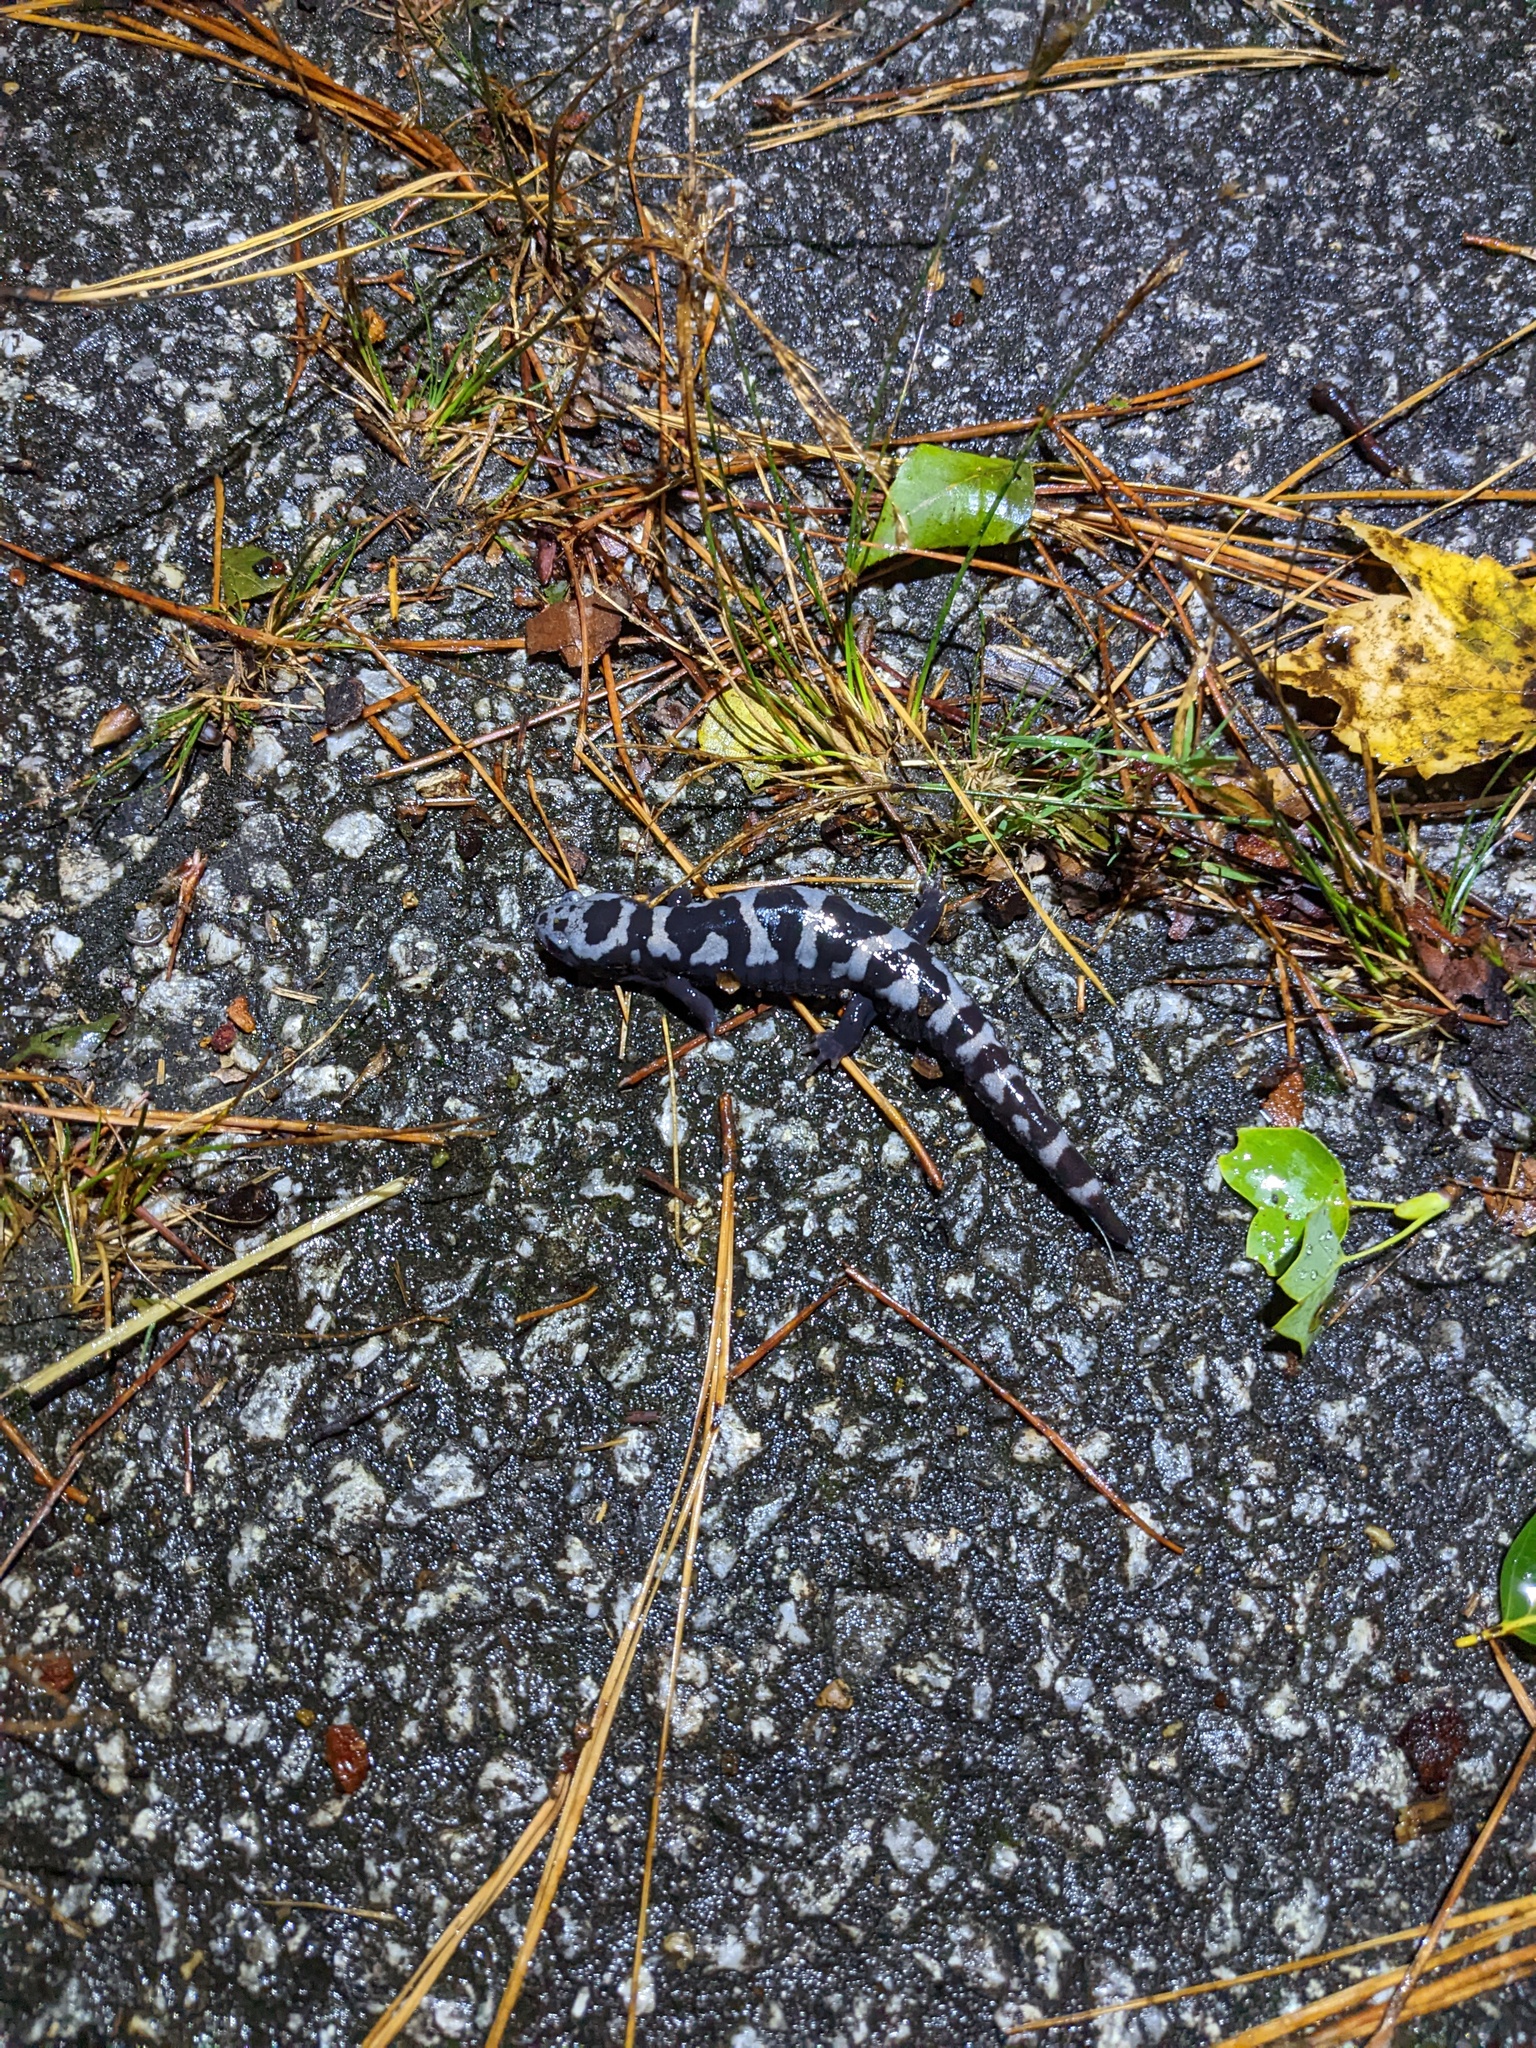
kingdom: Animalia
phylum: Chordata
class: Amphibia
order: Caudata
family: Ambystomatidae
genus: Ambystoma
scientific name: Ambystoma opacum
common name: Marbled salamander
